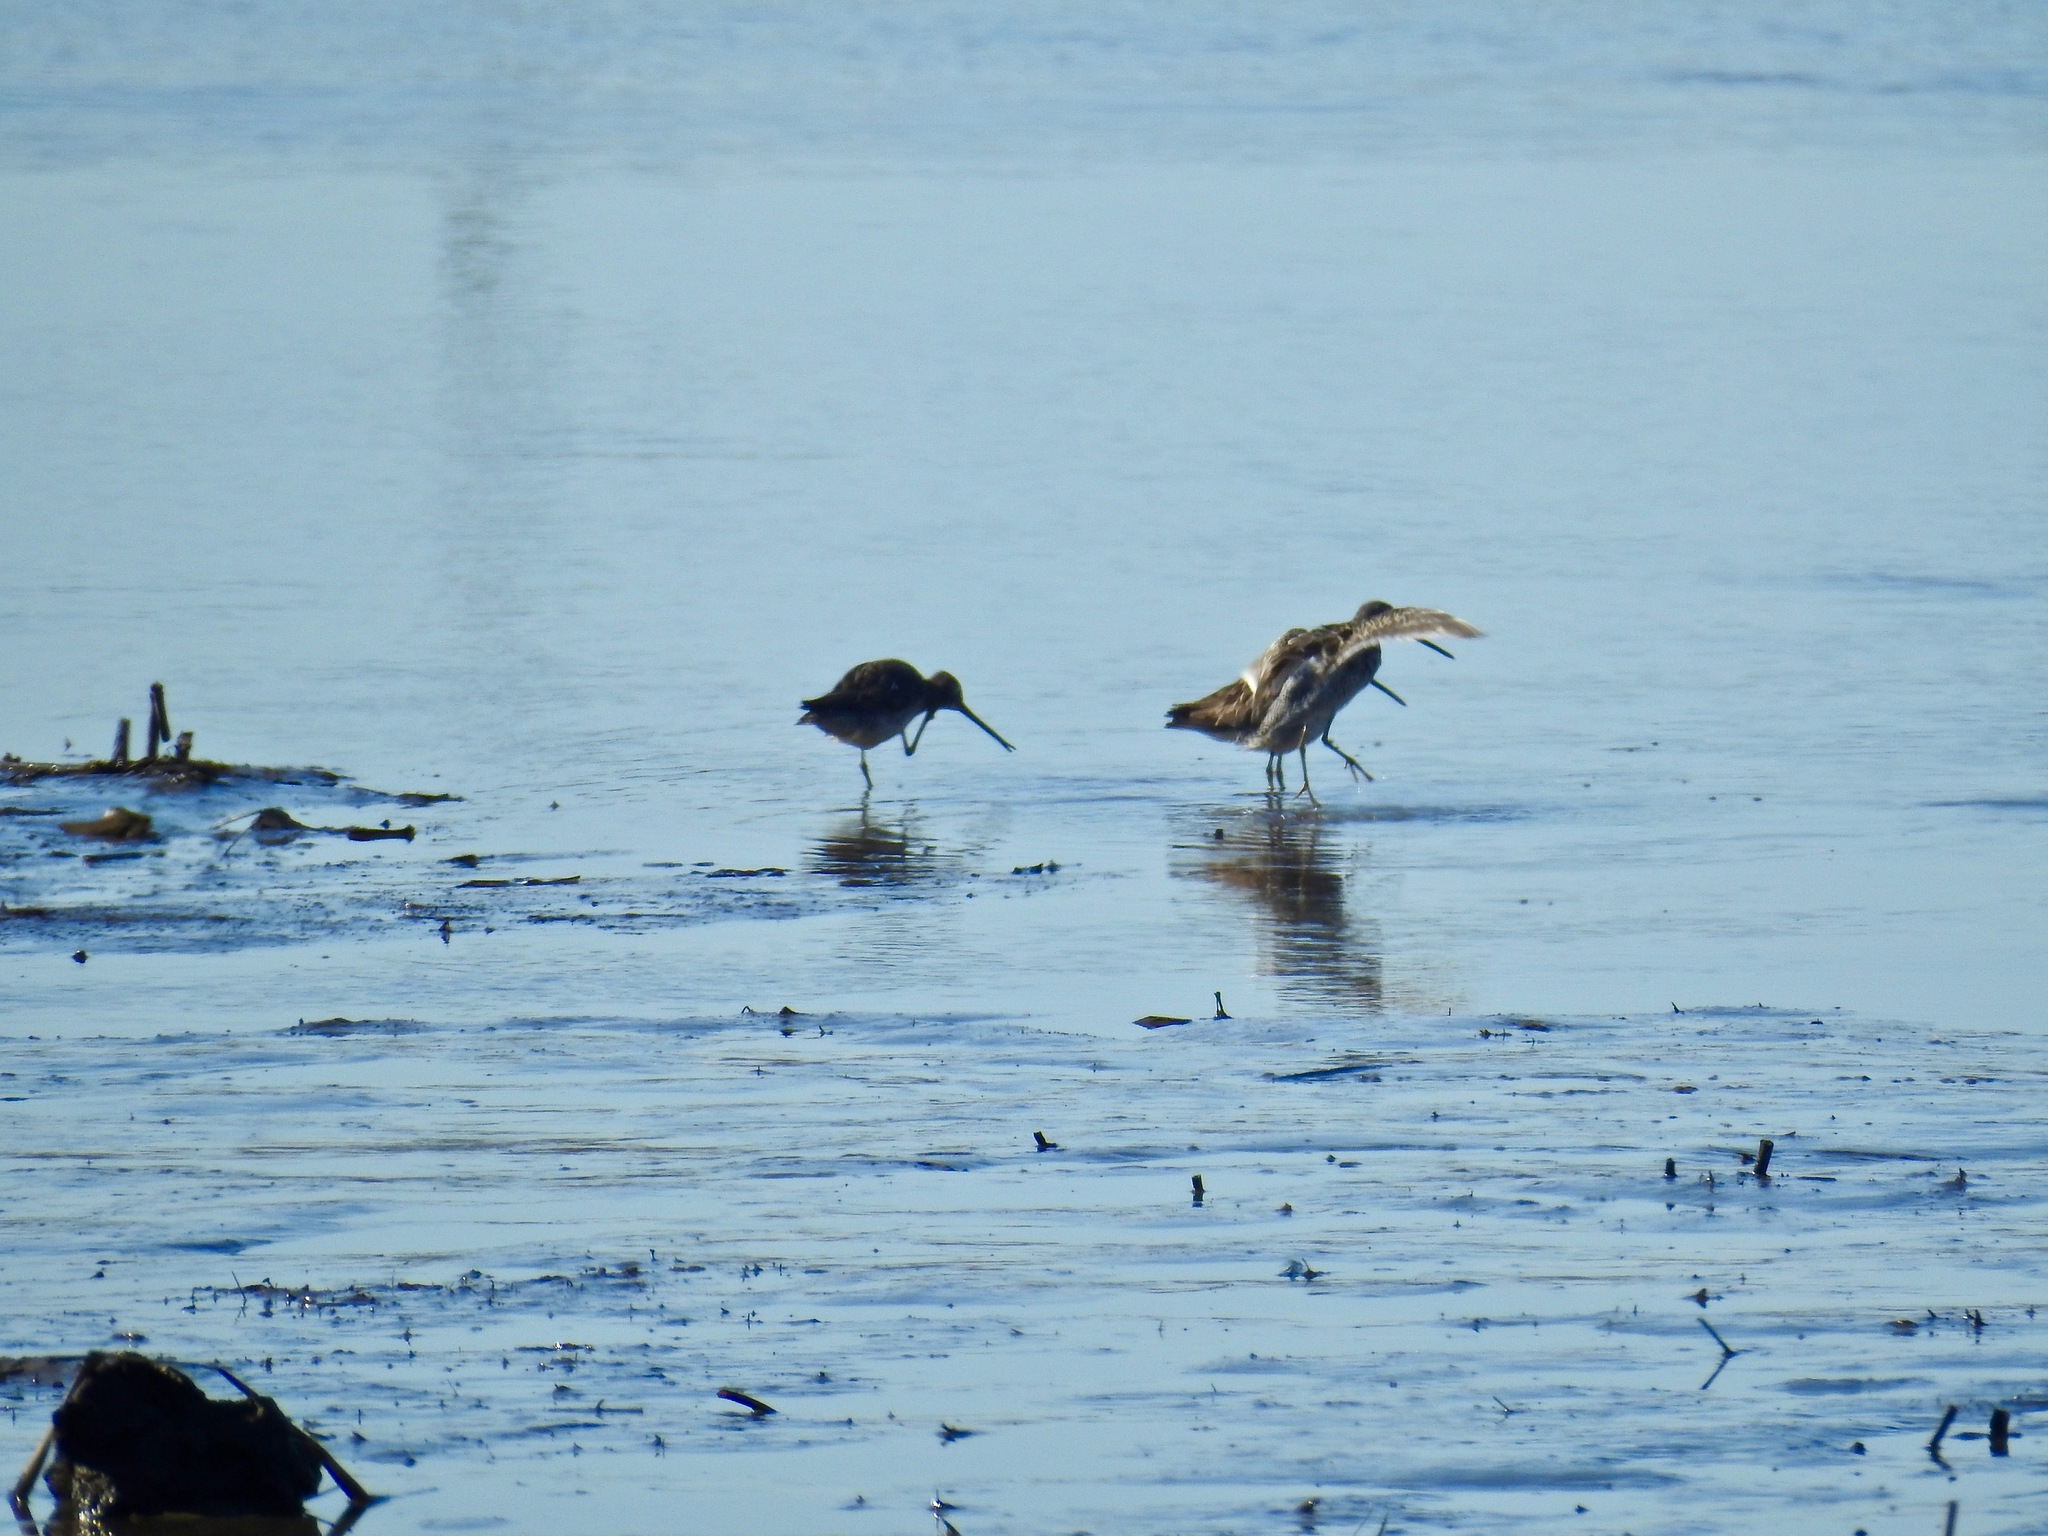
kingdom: Animalia
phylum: Chordata
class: Aves
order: Charadriiformes
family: Scolopacidae
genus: Limnodromus
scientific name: Limnodromus
